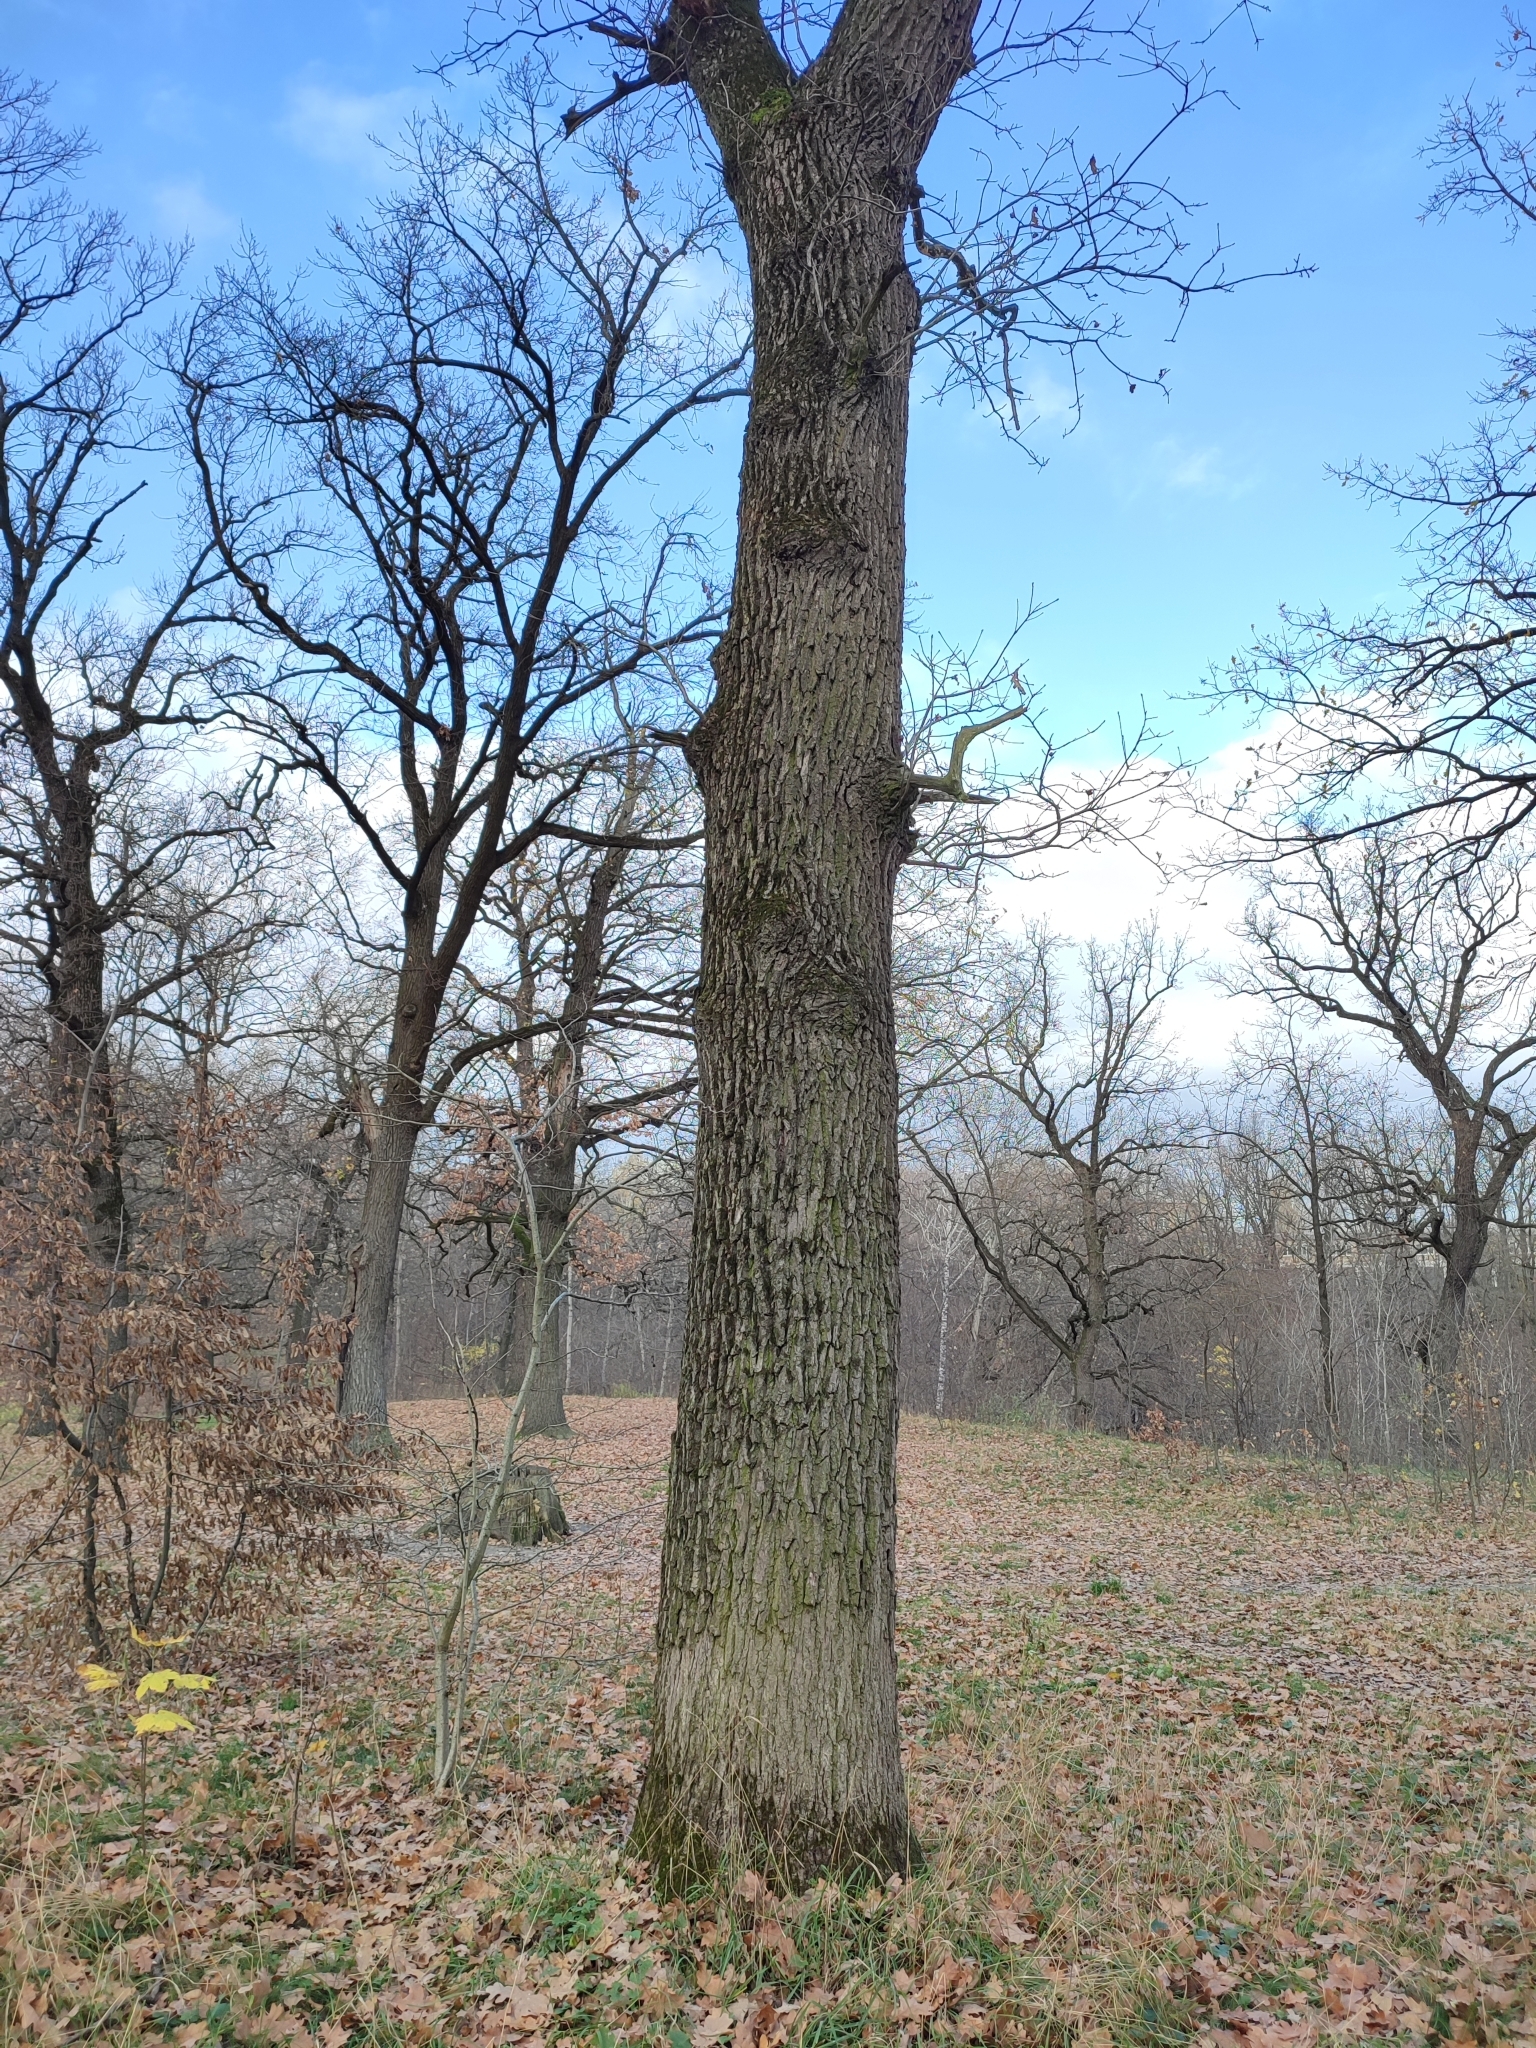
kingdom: Plantae
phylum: Tracheophyta
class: Magnoliopsida
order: Fagales
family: Fagaceae
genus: Quercus
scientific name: Quercus robur
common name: Pedunculate oak
